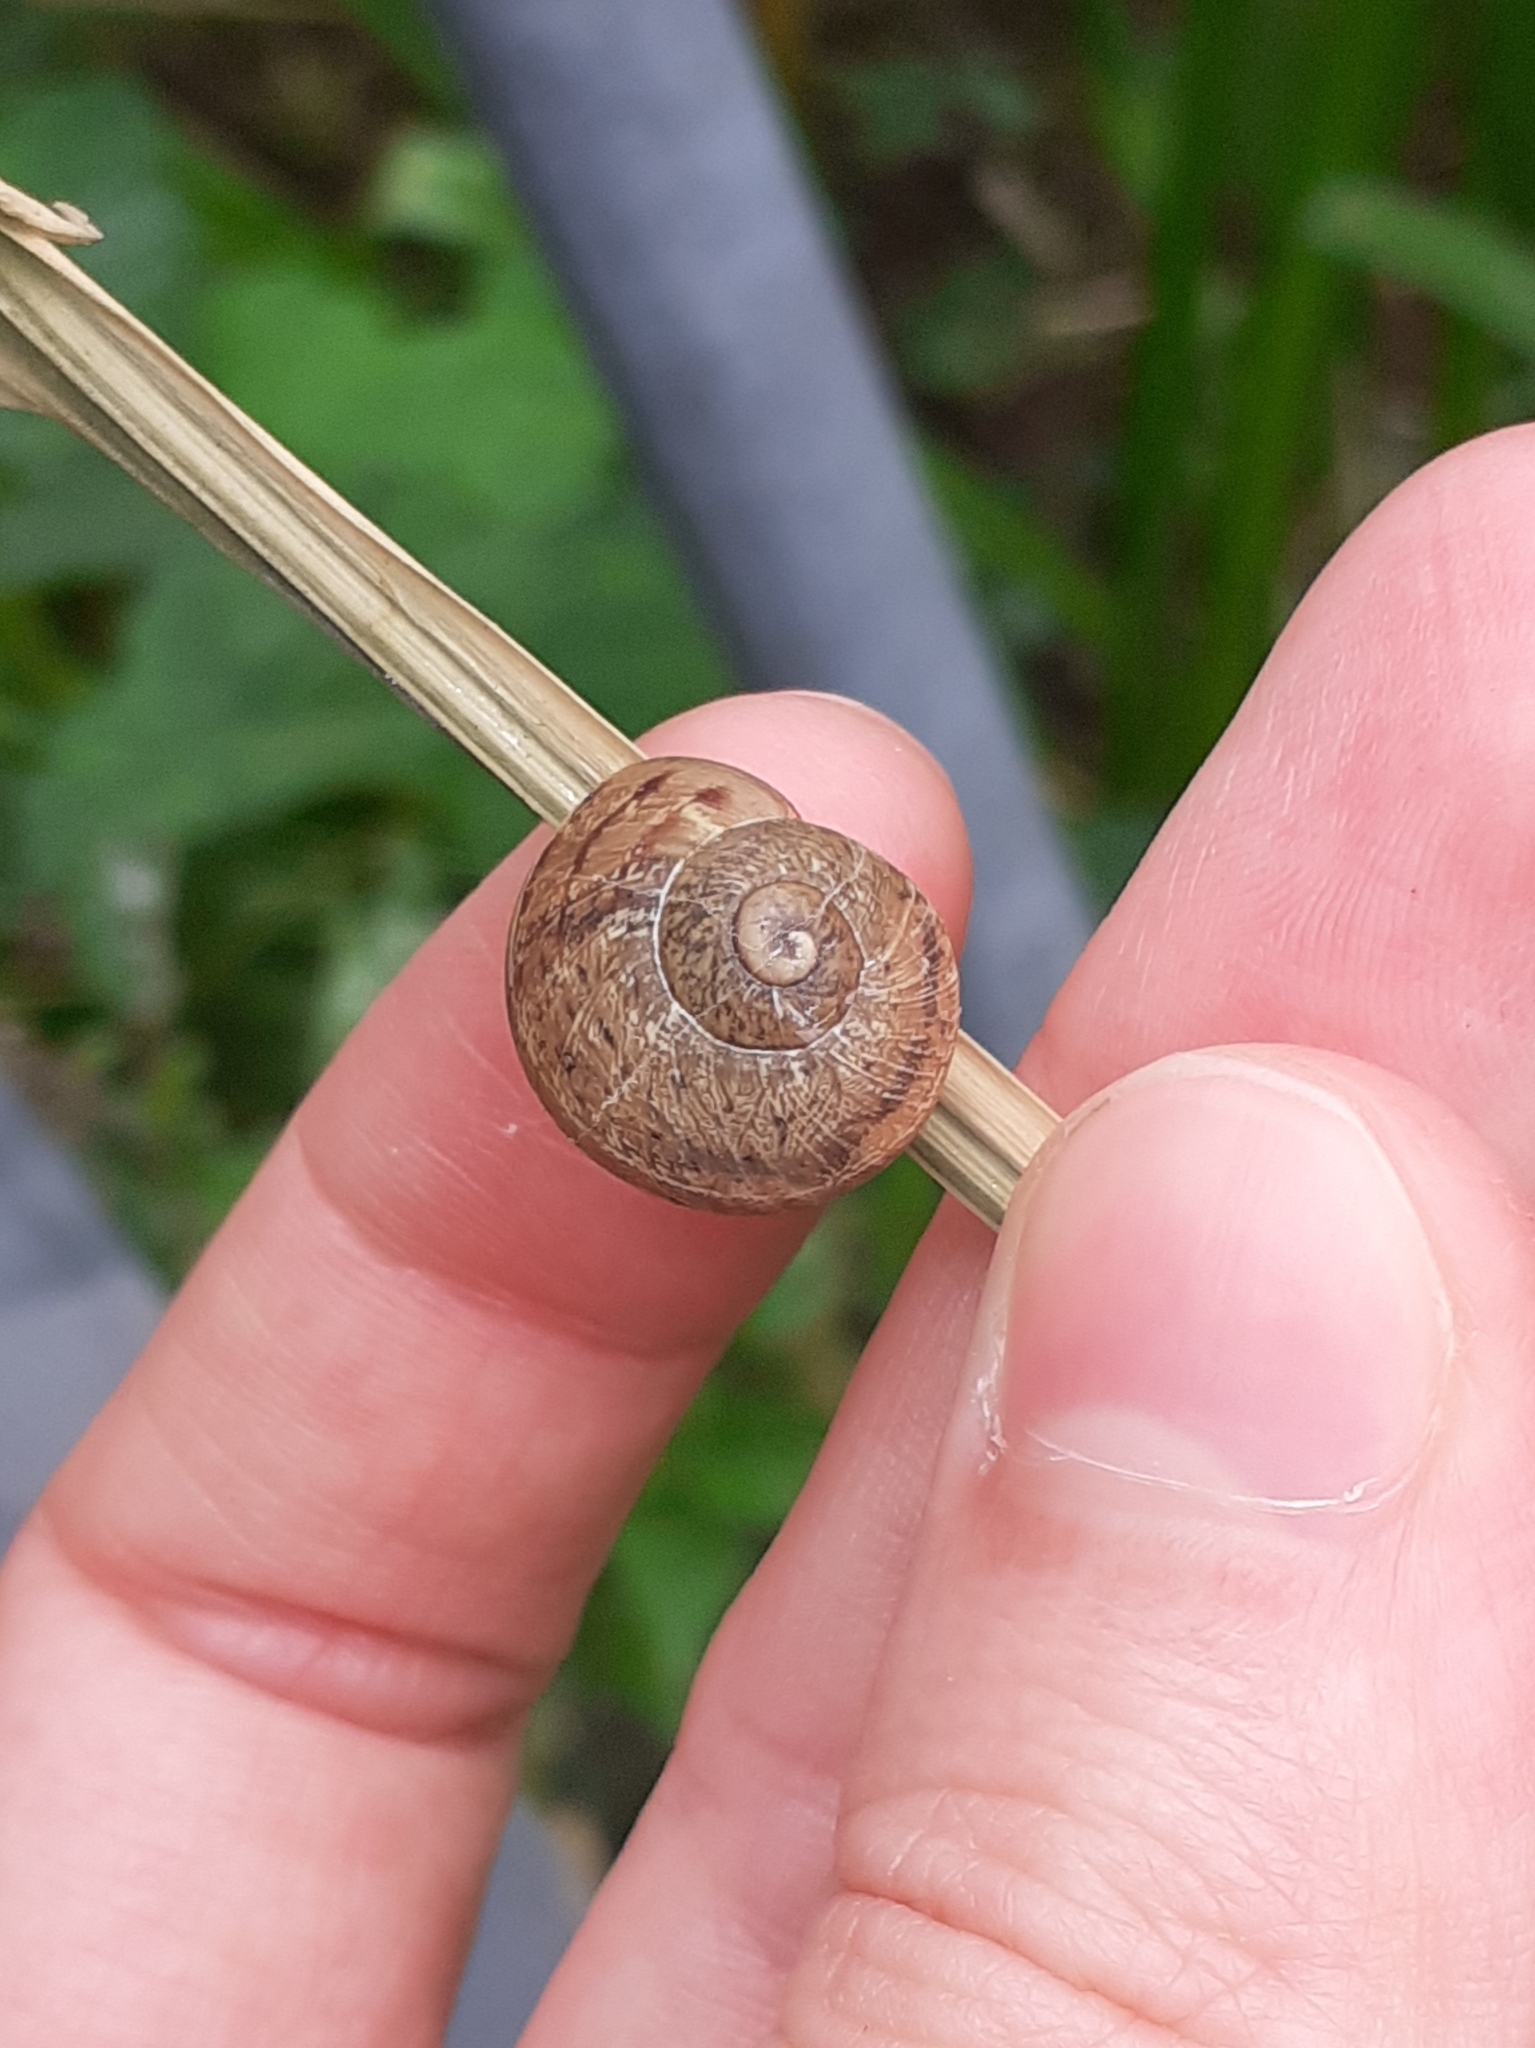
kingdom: Animalia
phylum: Mollusca
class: Gastropoda
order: Stylommatophora
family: Helicidae
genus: Cornu
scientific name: Cornu aspersum
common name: Brown garden snail
